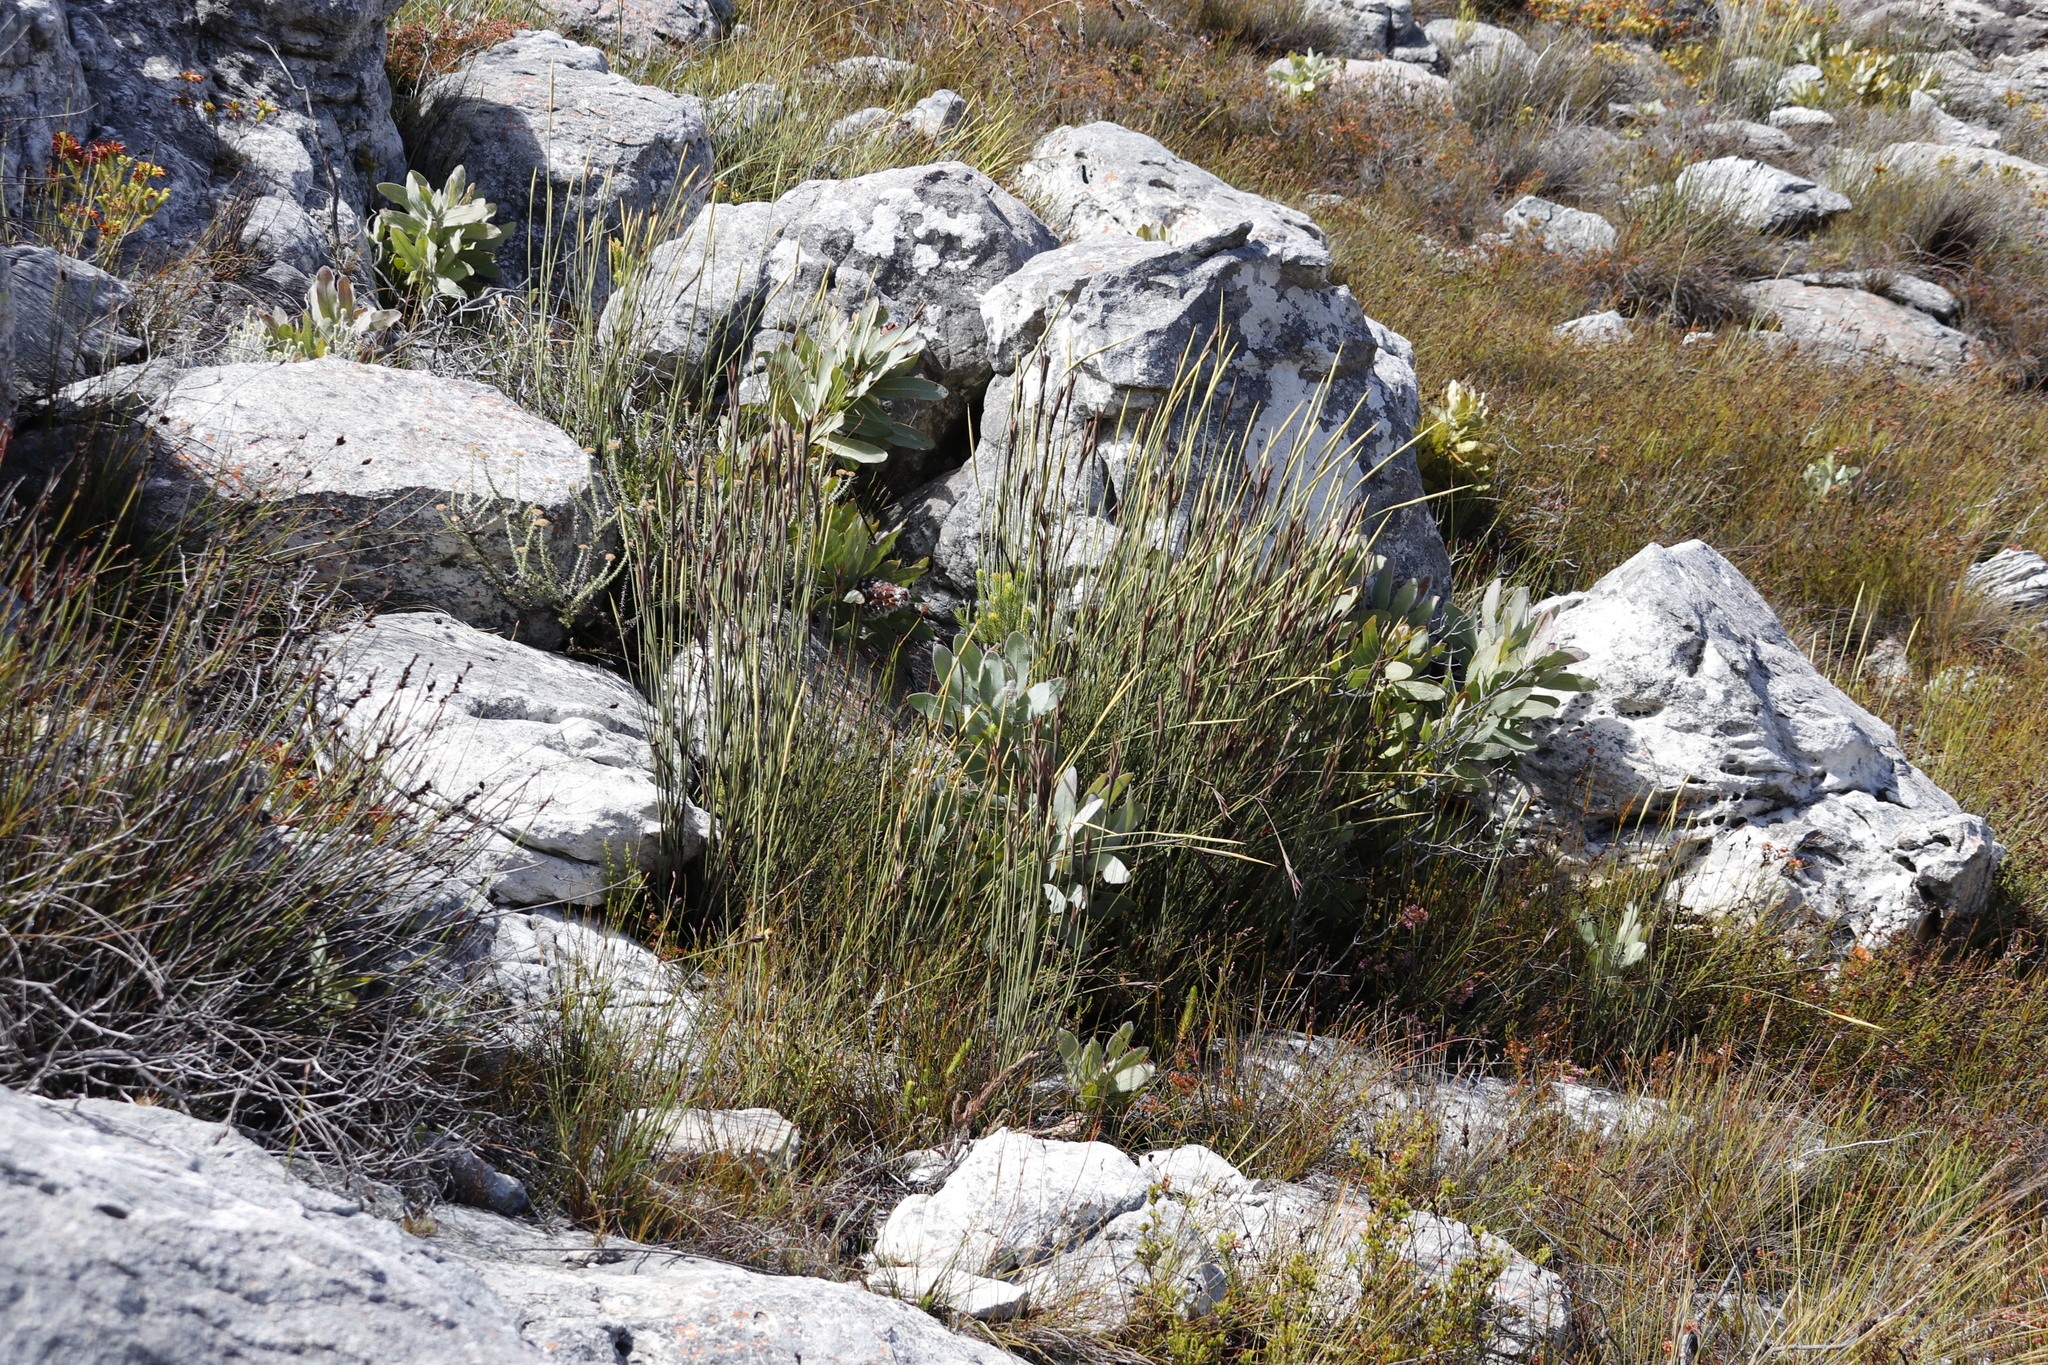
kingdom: Plantae
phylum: Tracheophyta
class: Magnoliopsida
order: Proteales
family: Proteaceae
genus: Protea
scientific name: Protea magnifica
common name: Bearded sugarbush
